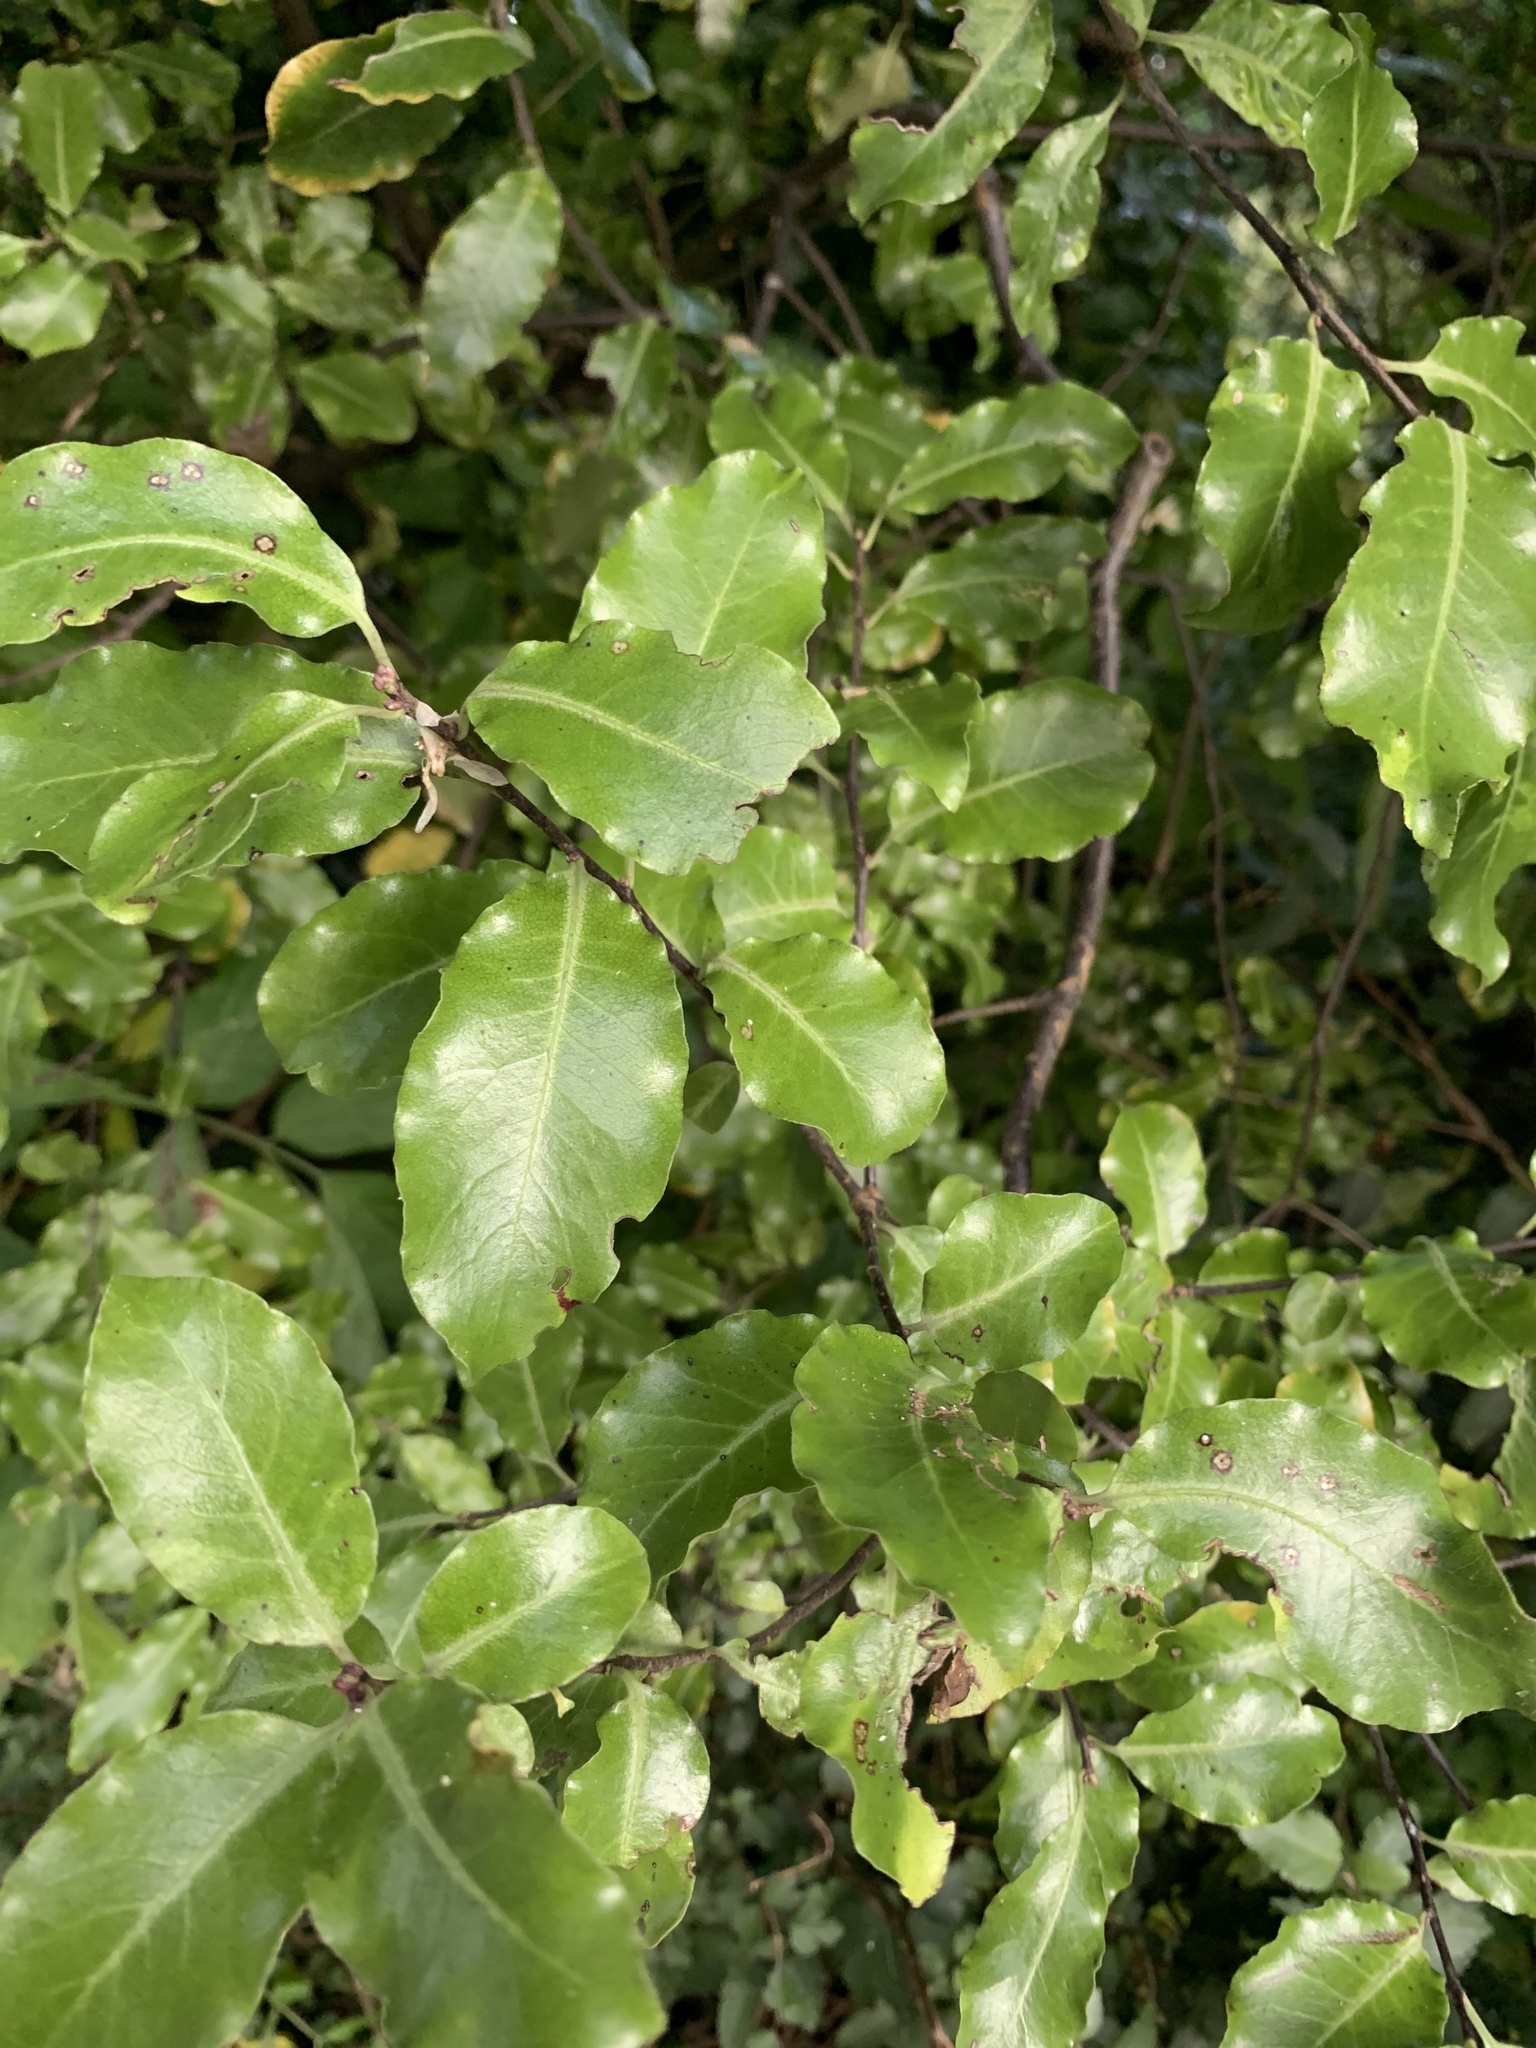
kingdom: Plantae
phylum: Tracheophyta
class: Magnoliopsida
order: Apiales
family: Pittosporaceae
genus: Pittosporum
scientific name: Pittosporum tenuifolium
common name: Kohuhu
